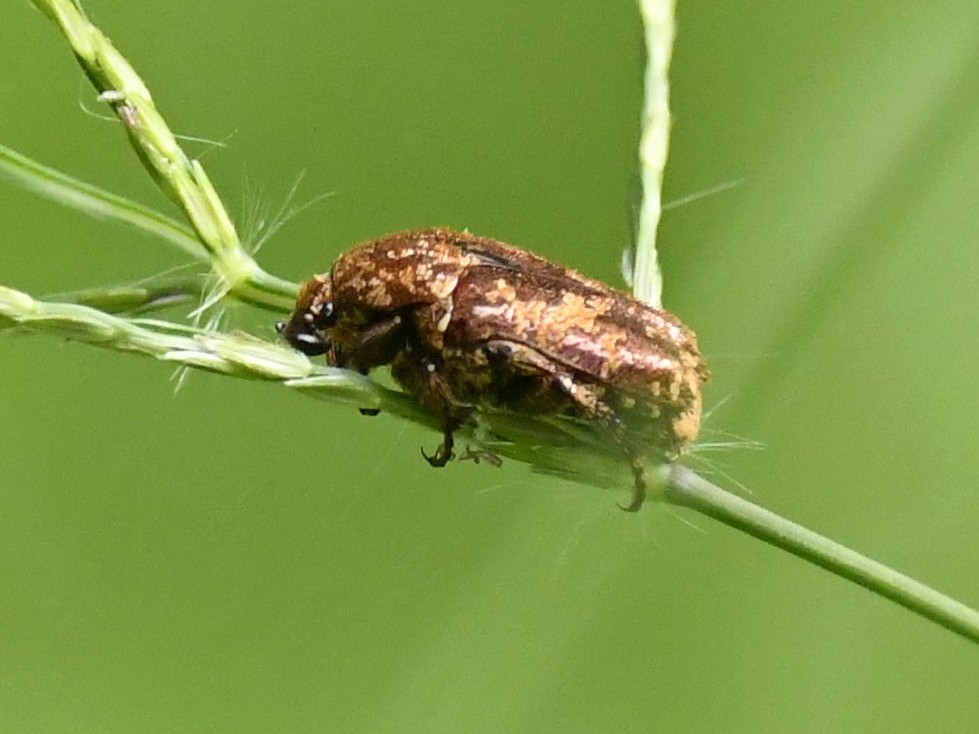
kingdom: Animalia
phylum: Arthropoda
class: Insecta
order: Coleoptera
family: Scarabaeidae
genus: Protaetia
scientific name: Protaetia squamipennis
